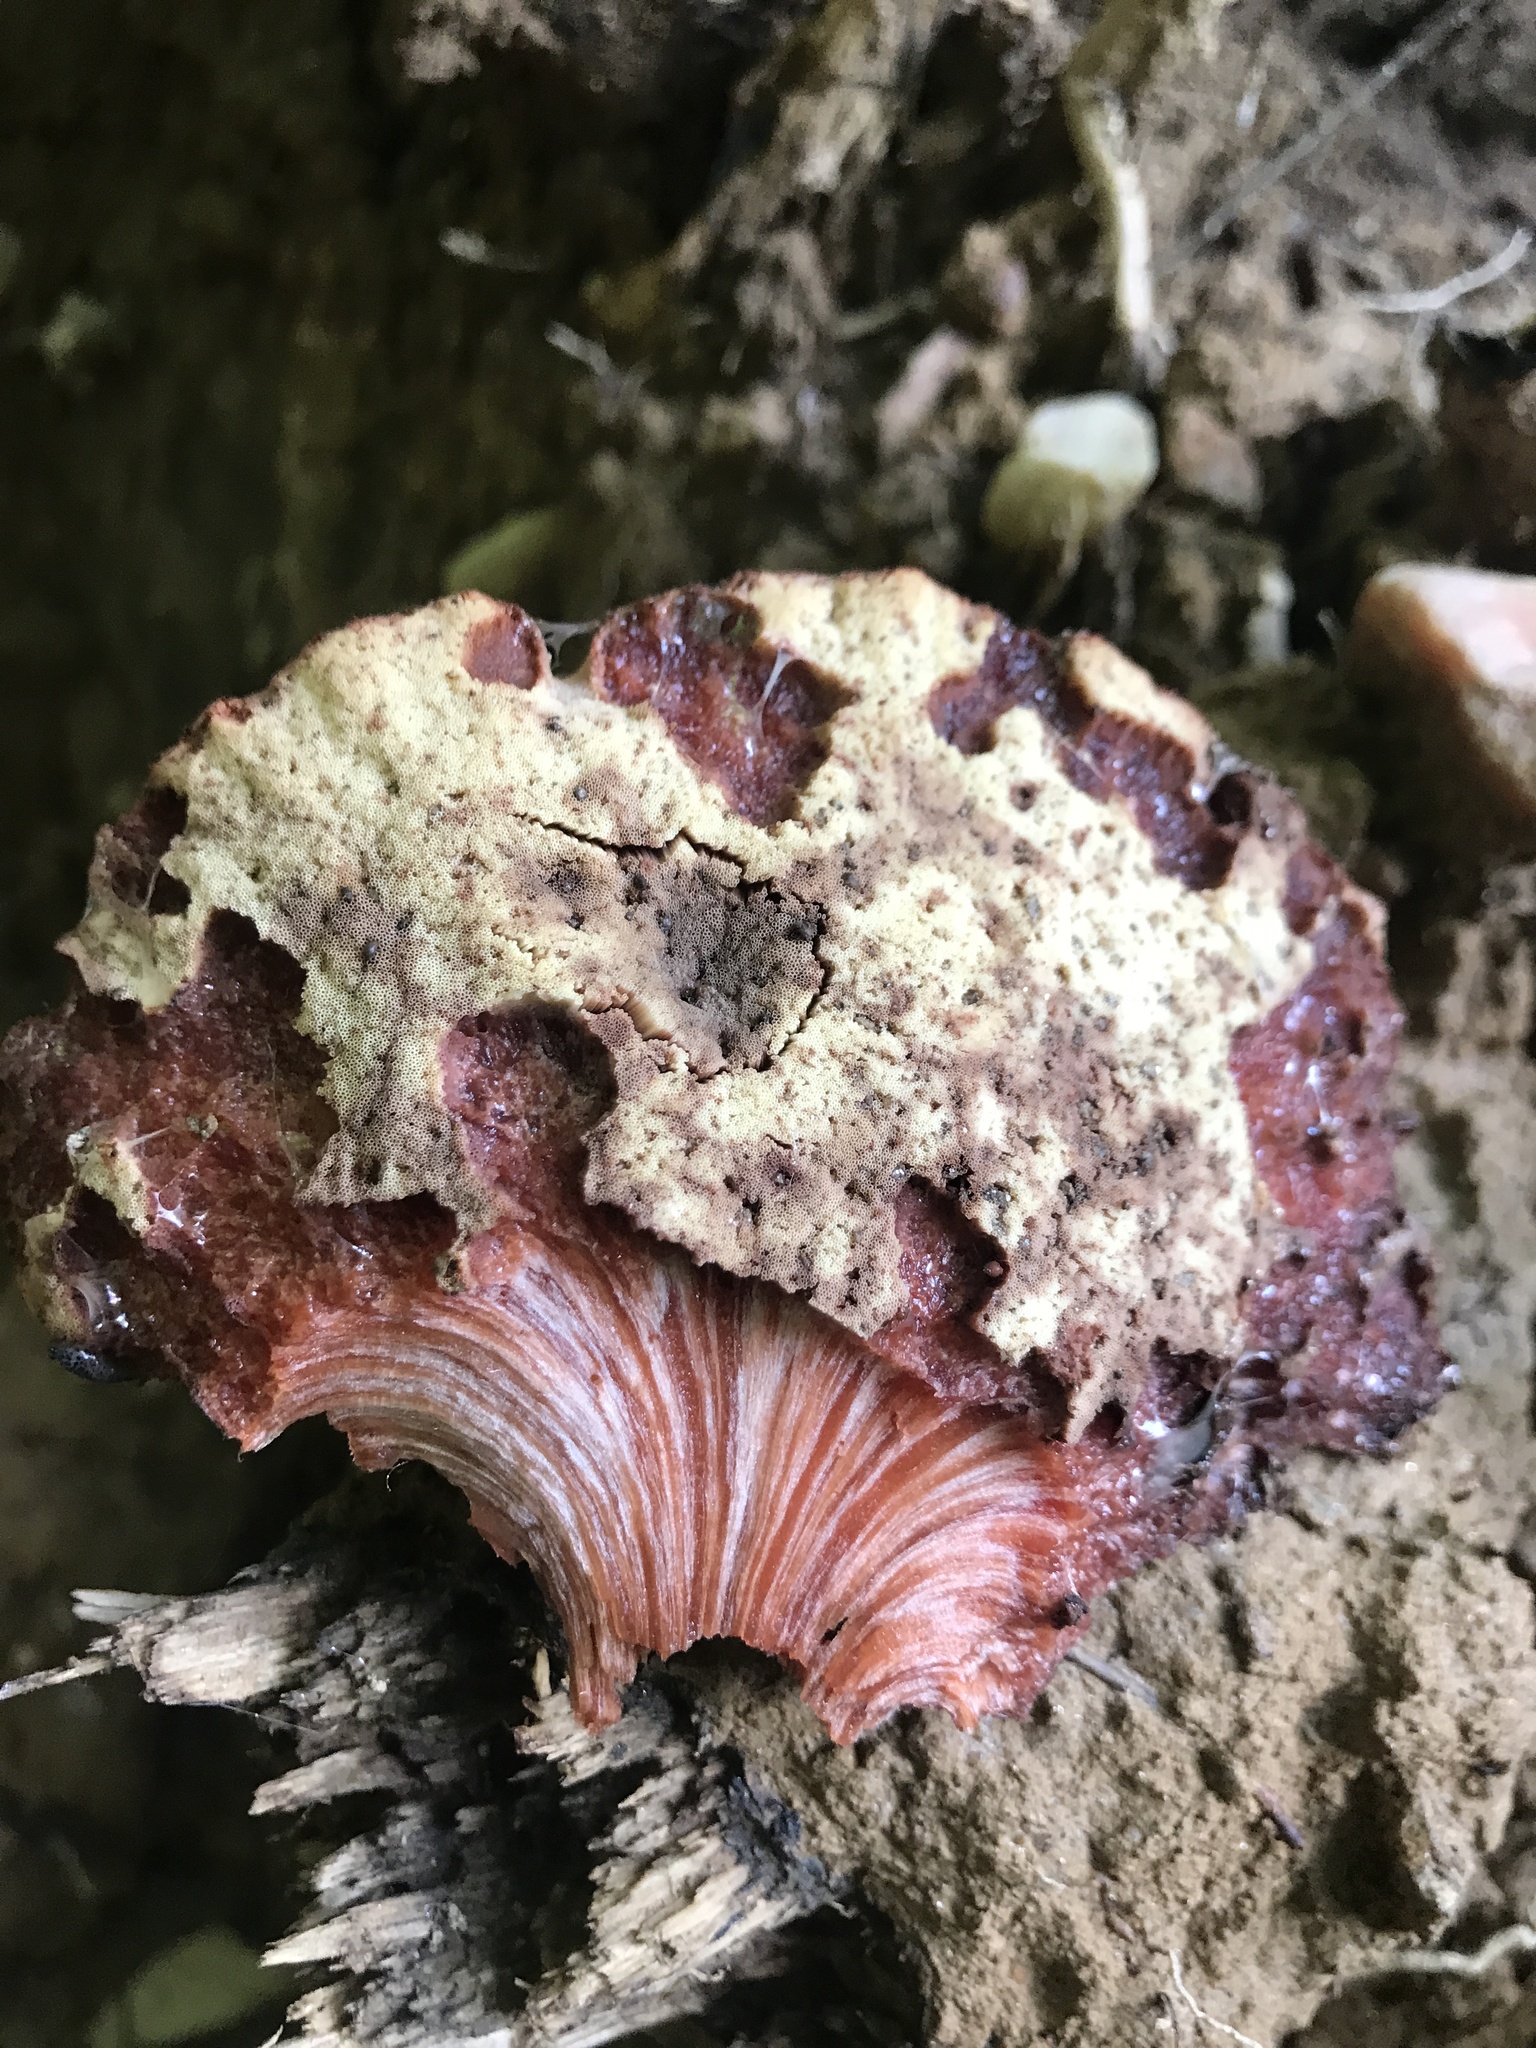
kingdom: Fungi
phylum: Basidiomycota
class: Agaricomycetes
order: Agaricales
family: Fistulinaceae
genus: Fistulina
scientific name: Fistulina hepatica
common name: Beef-steak fungus
